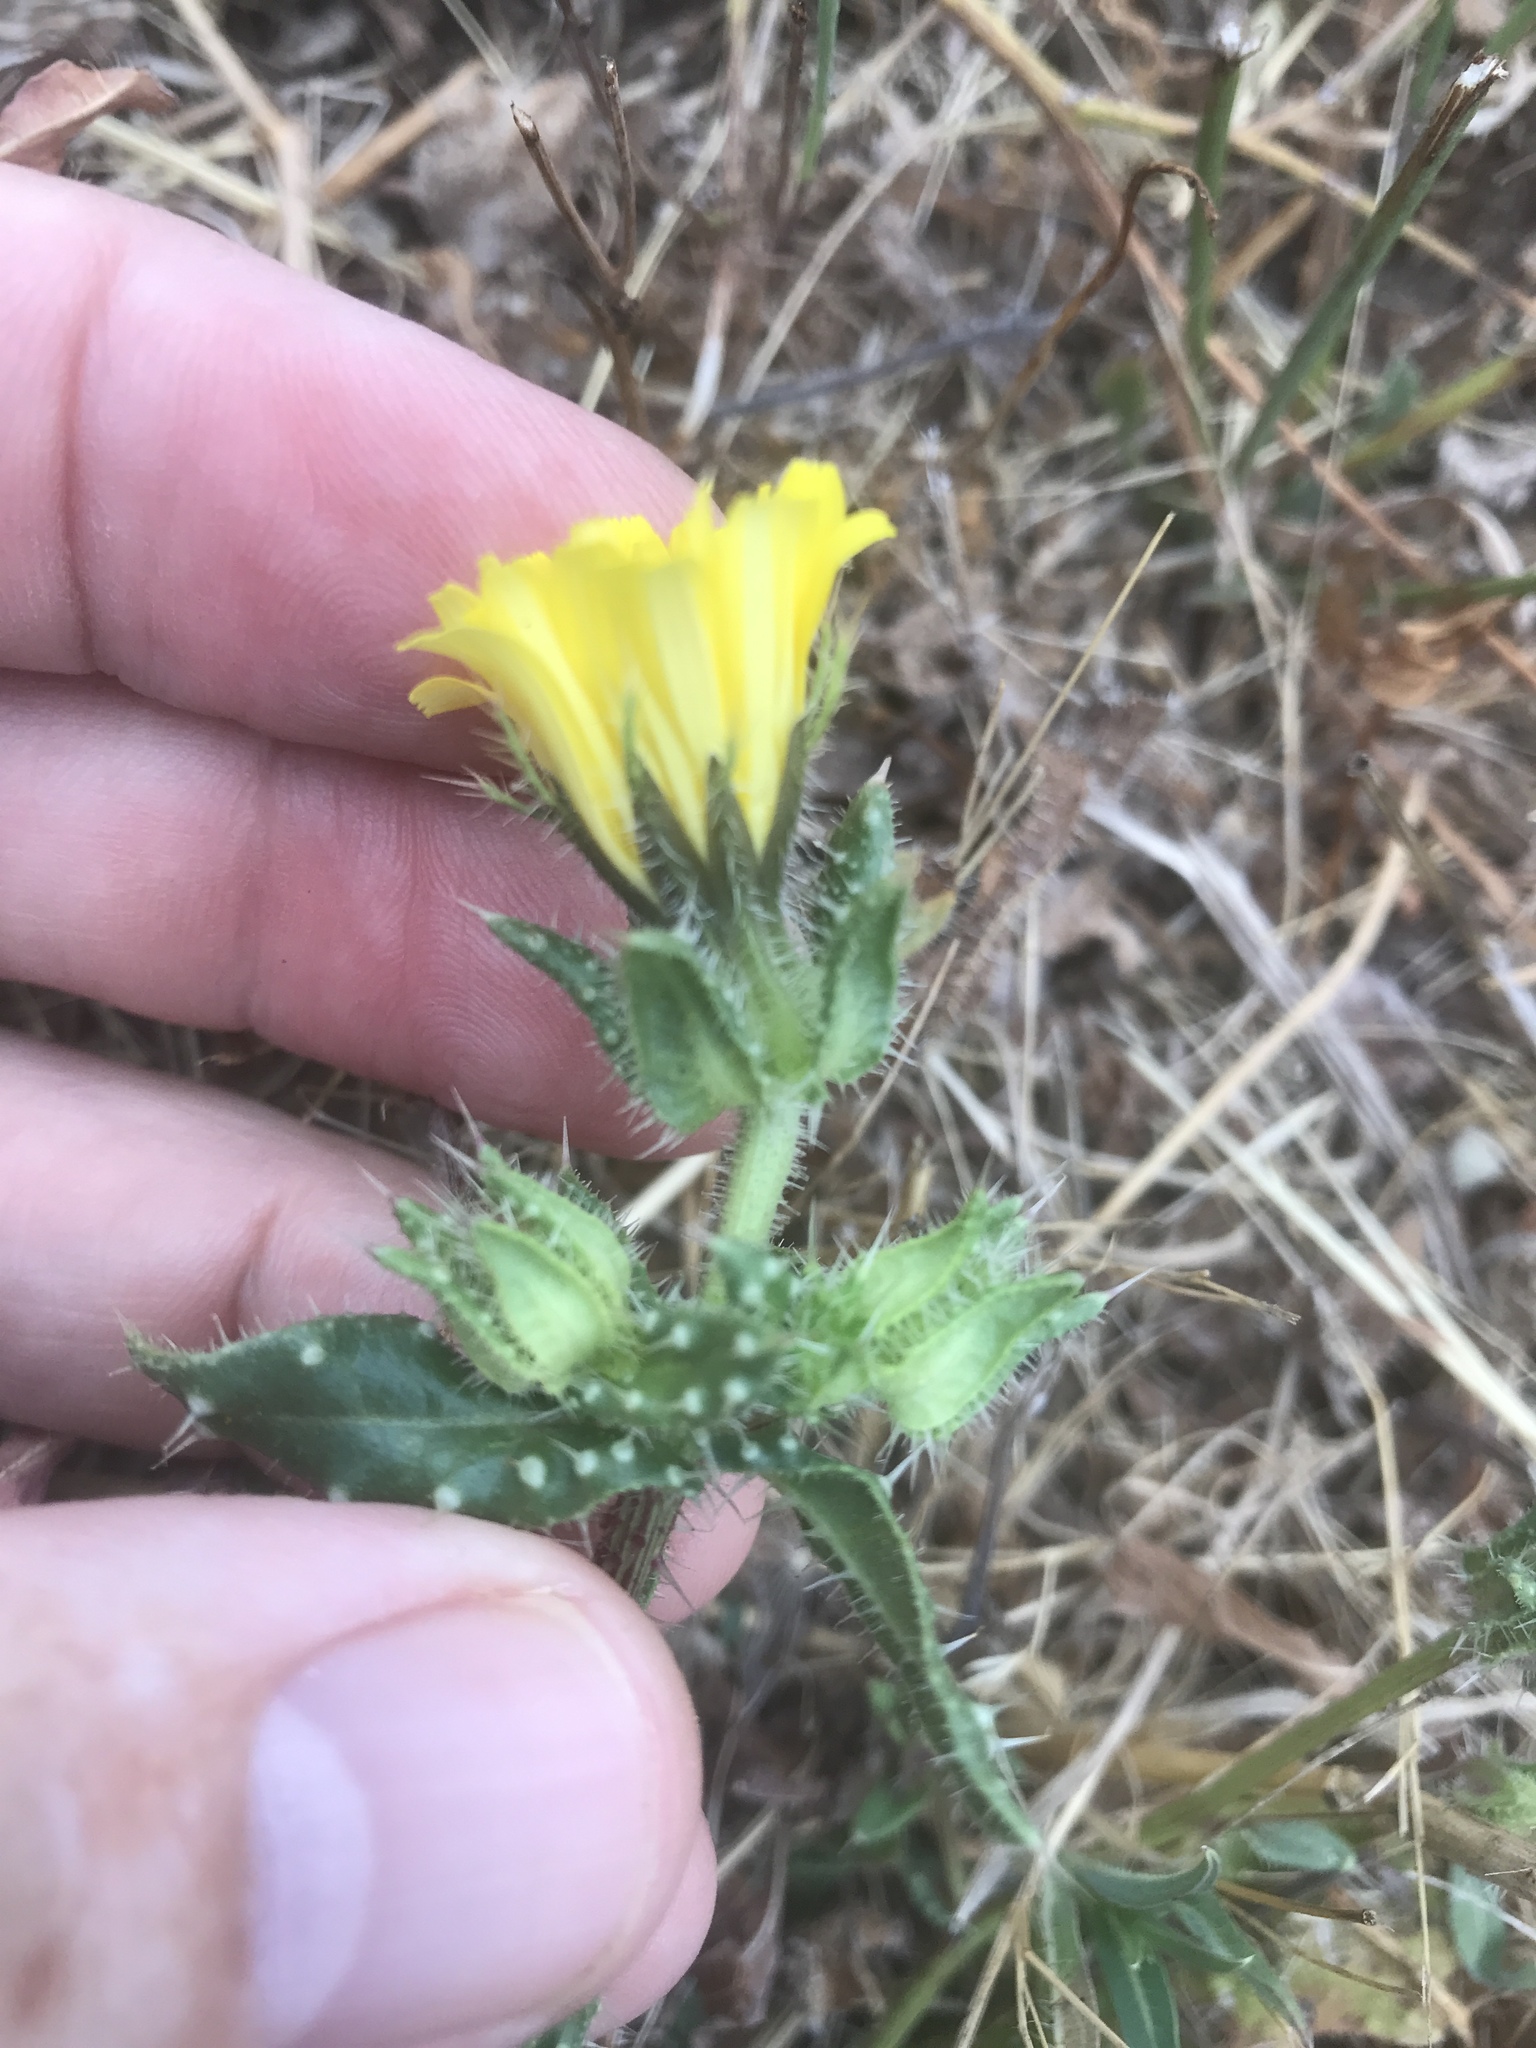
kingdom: Plantae
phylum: Tracheophyta
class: Magnoliopsida
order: Asterales
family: Asteraceae
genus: Helminthotheca
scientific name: Helminthotheca echioides
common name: Ox-tongue
